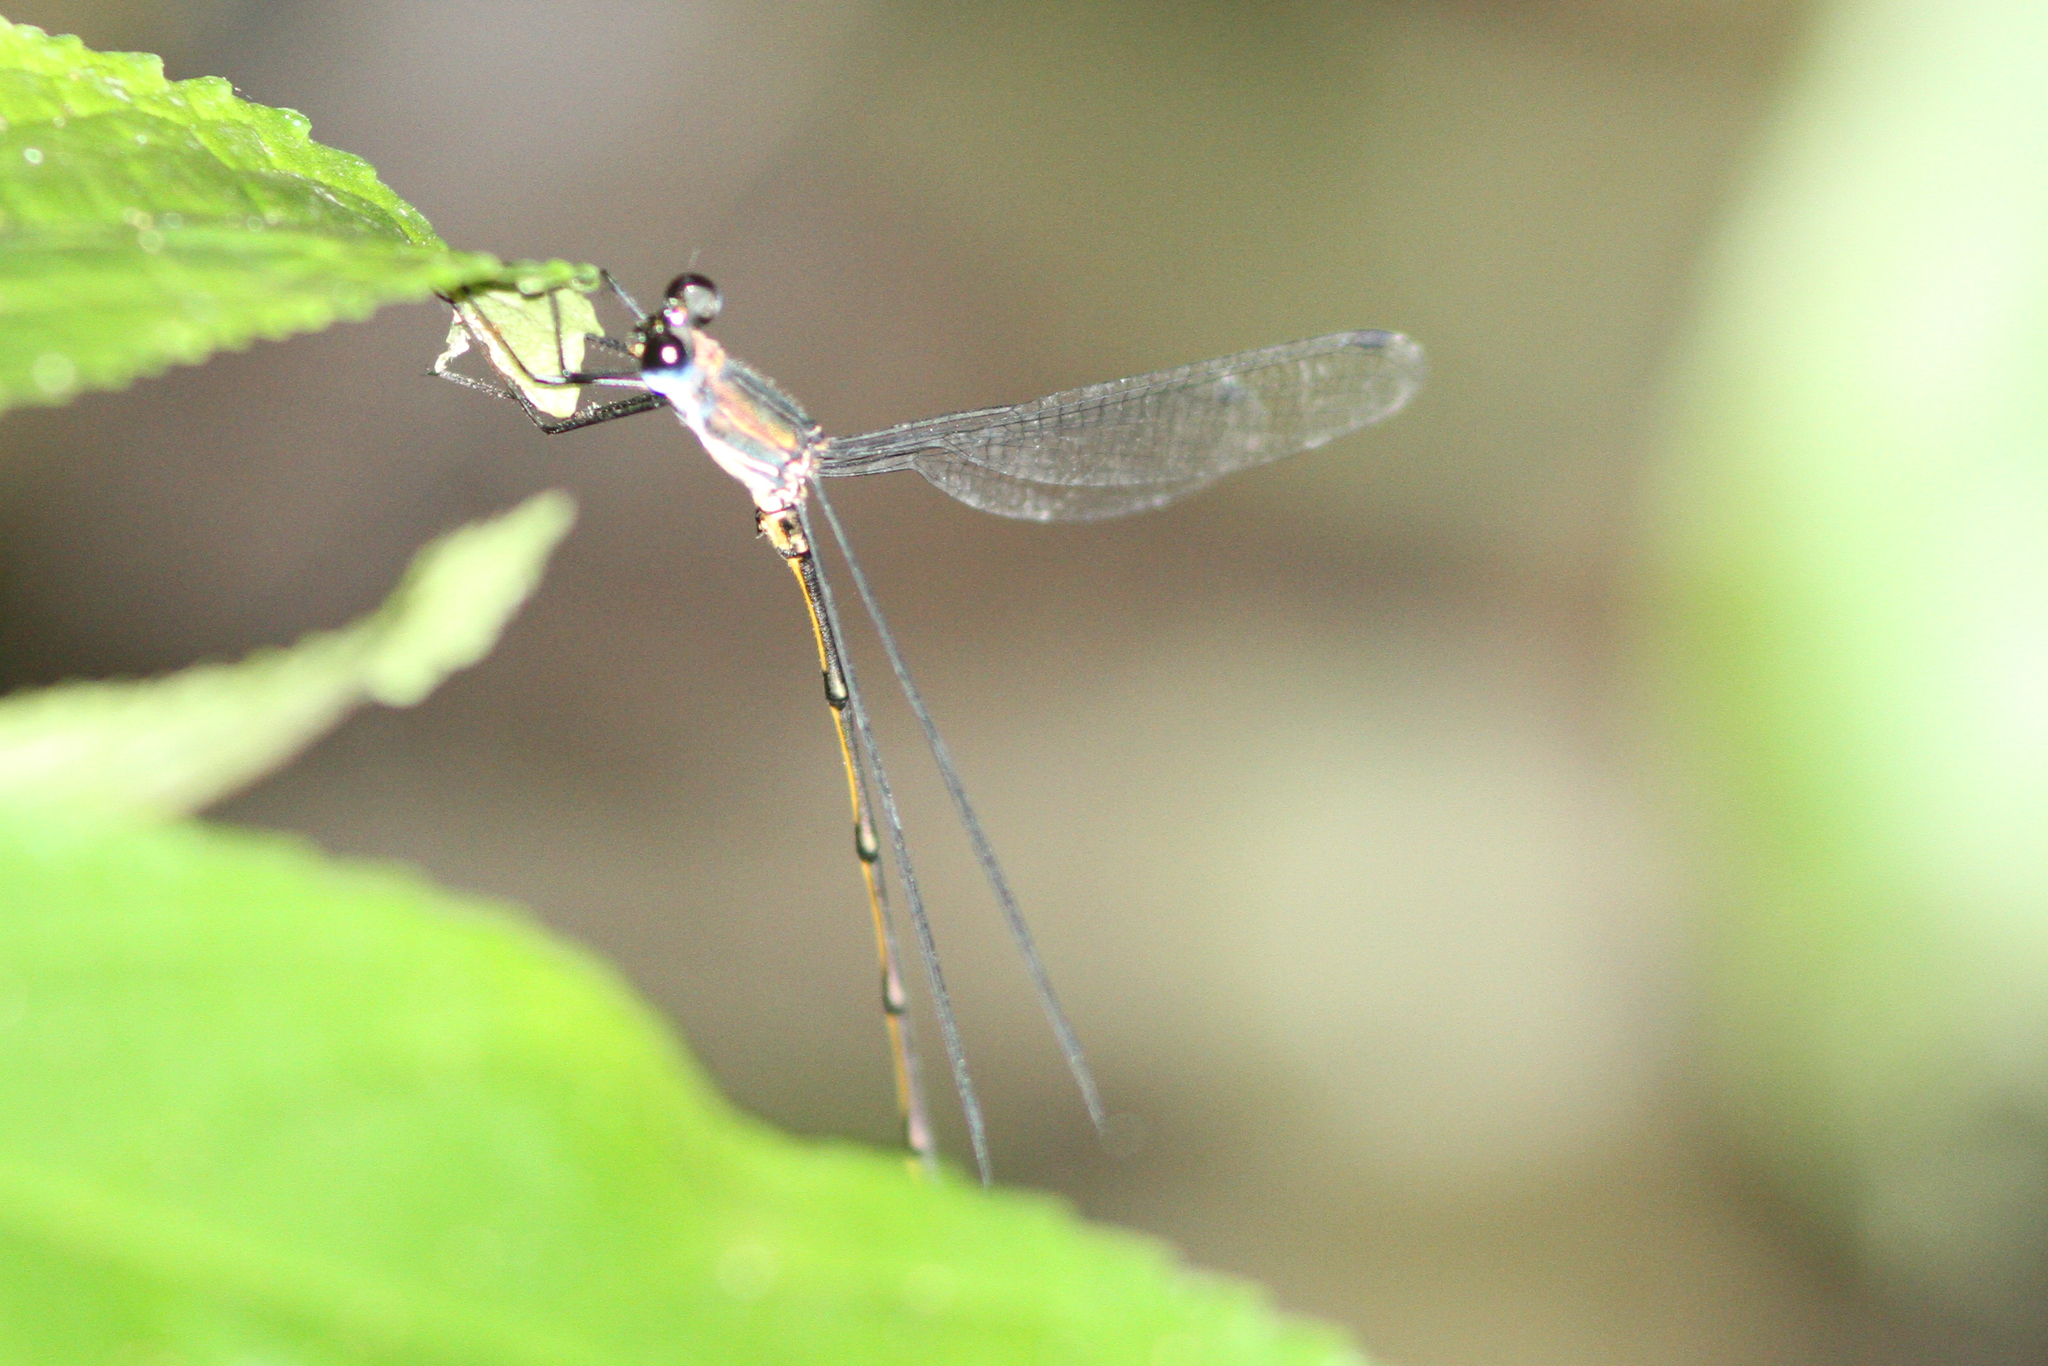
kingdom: Animalia
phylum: Arthropoda
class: Insecta
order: Odonata
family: Synlestidae
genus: Synlestes
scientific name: Synlestes selysi
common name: Forest needle
